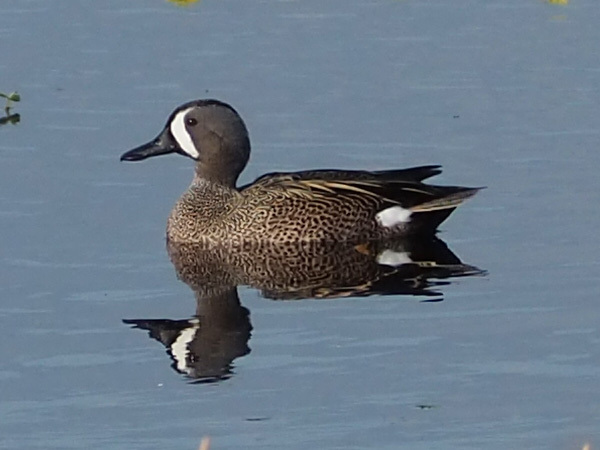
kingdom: Animalia
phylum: Chordata
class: Aves
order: Anseriformes
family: Anatidae
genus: Spatula
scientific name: Spatula discors
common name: Blue-winged teal
